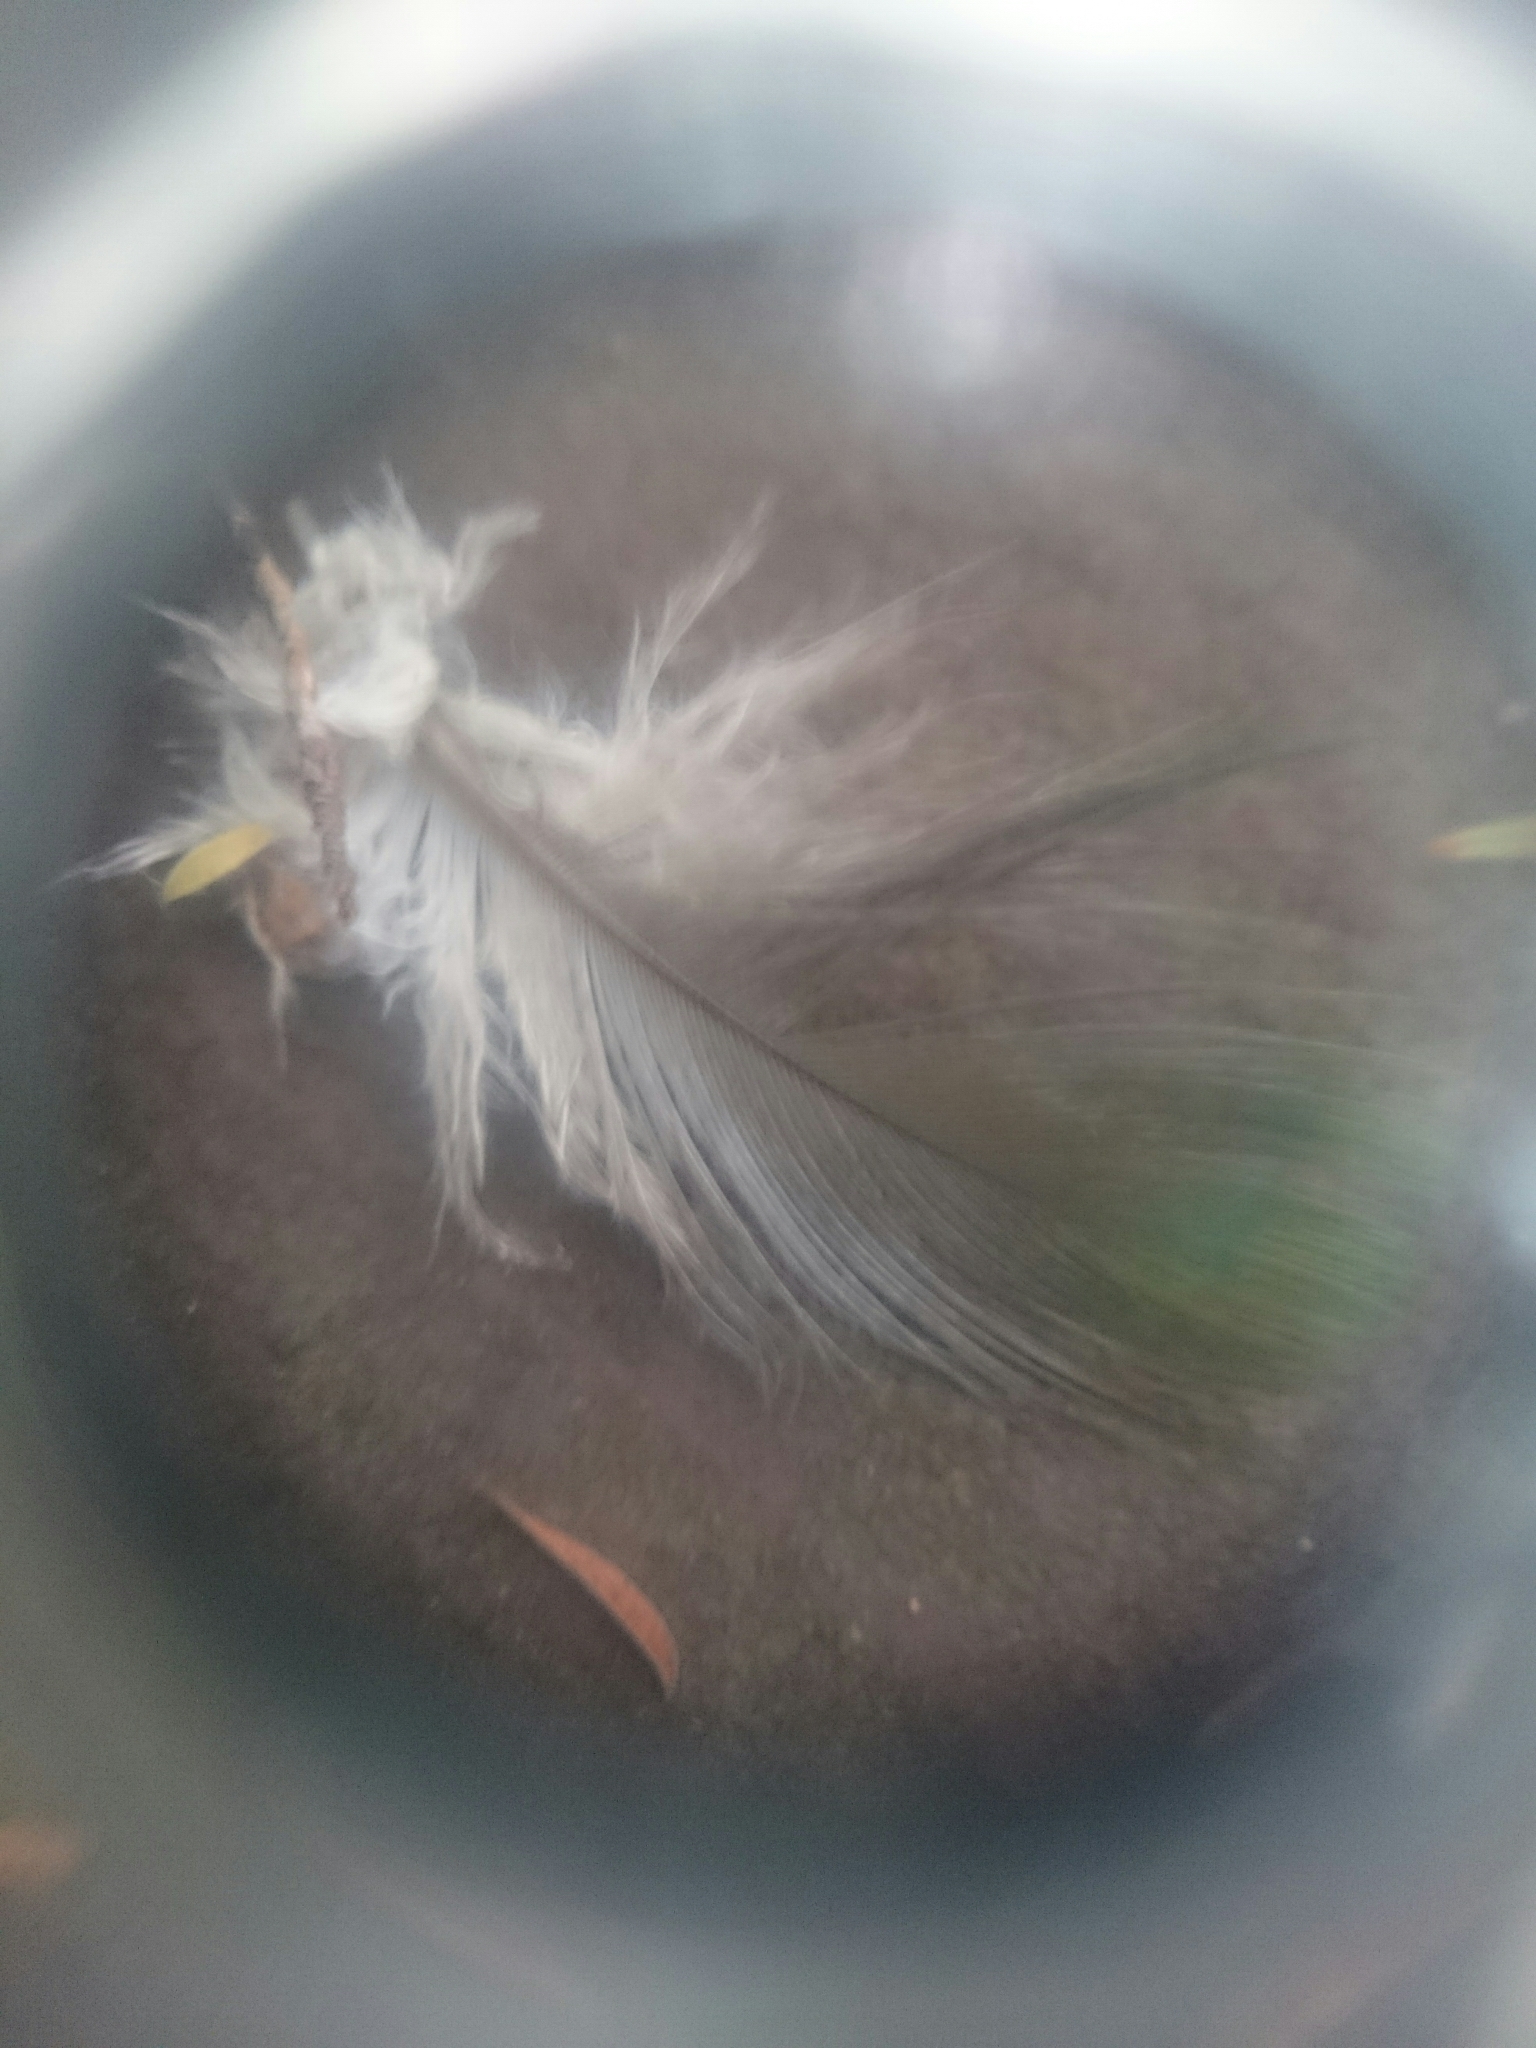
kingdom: Animalia
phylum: Chordata
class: Aves
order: Columbiformes
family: Columbidae
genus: Hemiphaga
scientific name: Hemiphaga novaeseelandiae
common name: New zealand pigeon
